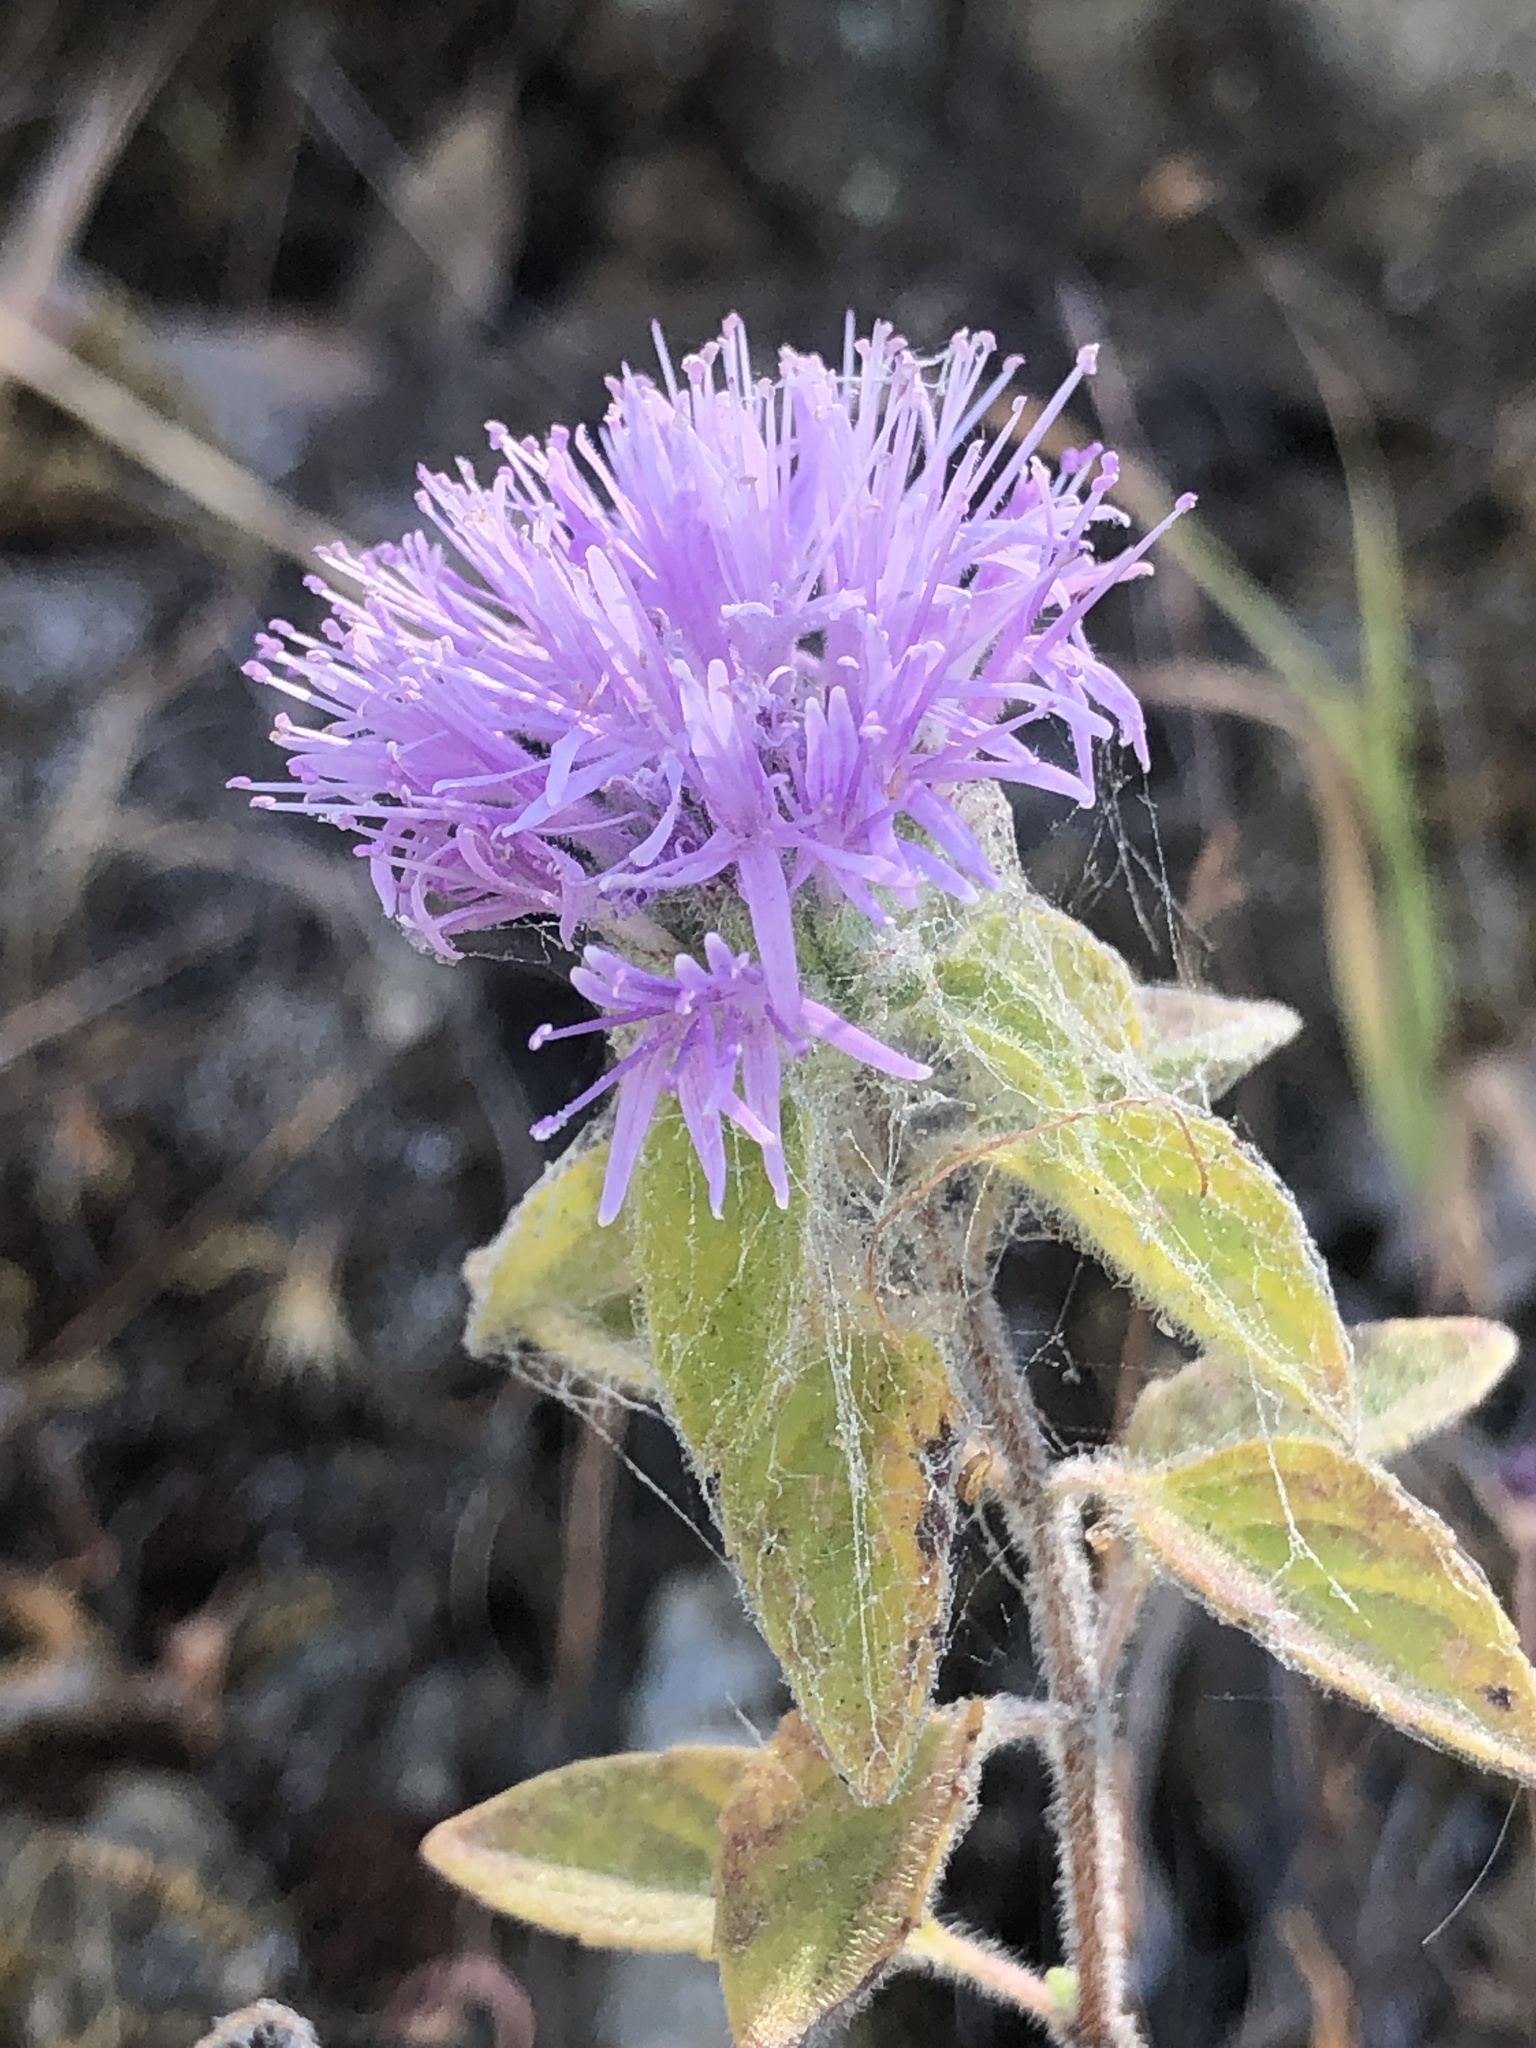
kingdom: Plantae
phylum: Tracheophyta
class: Magnoliopsida
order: Lamiales
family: Lamiaceae
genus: Monardella
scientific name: Monardella odoratissima
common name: Pacific monardella
